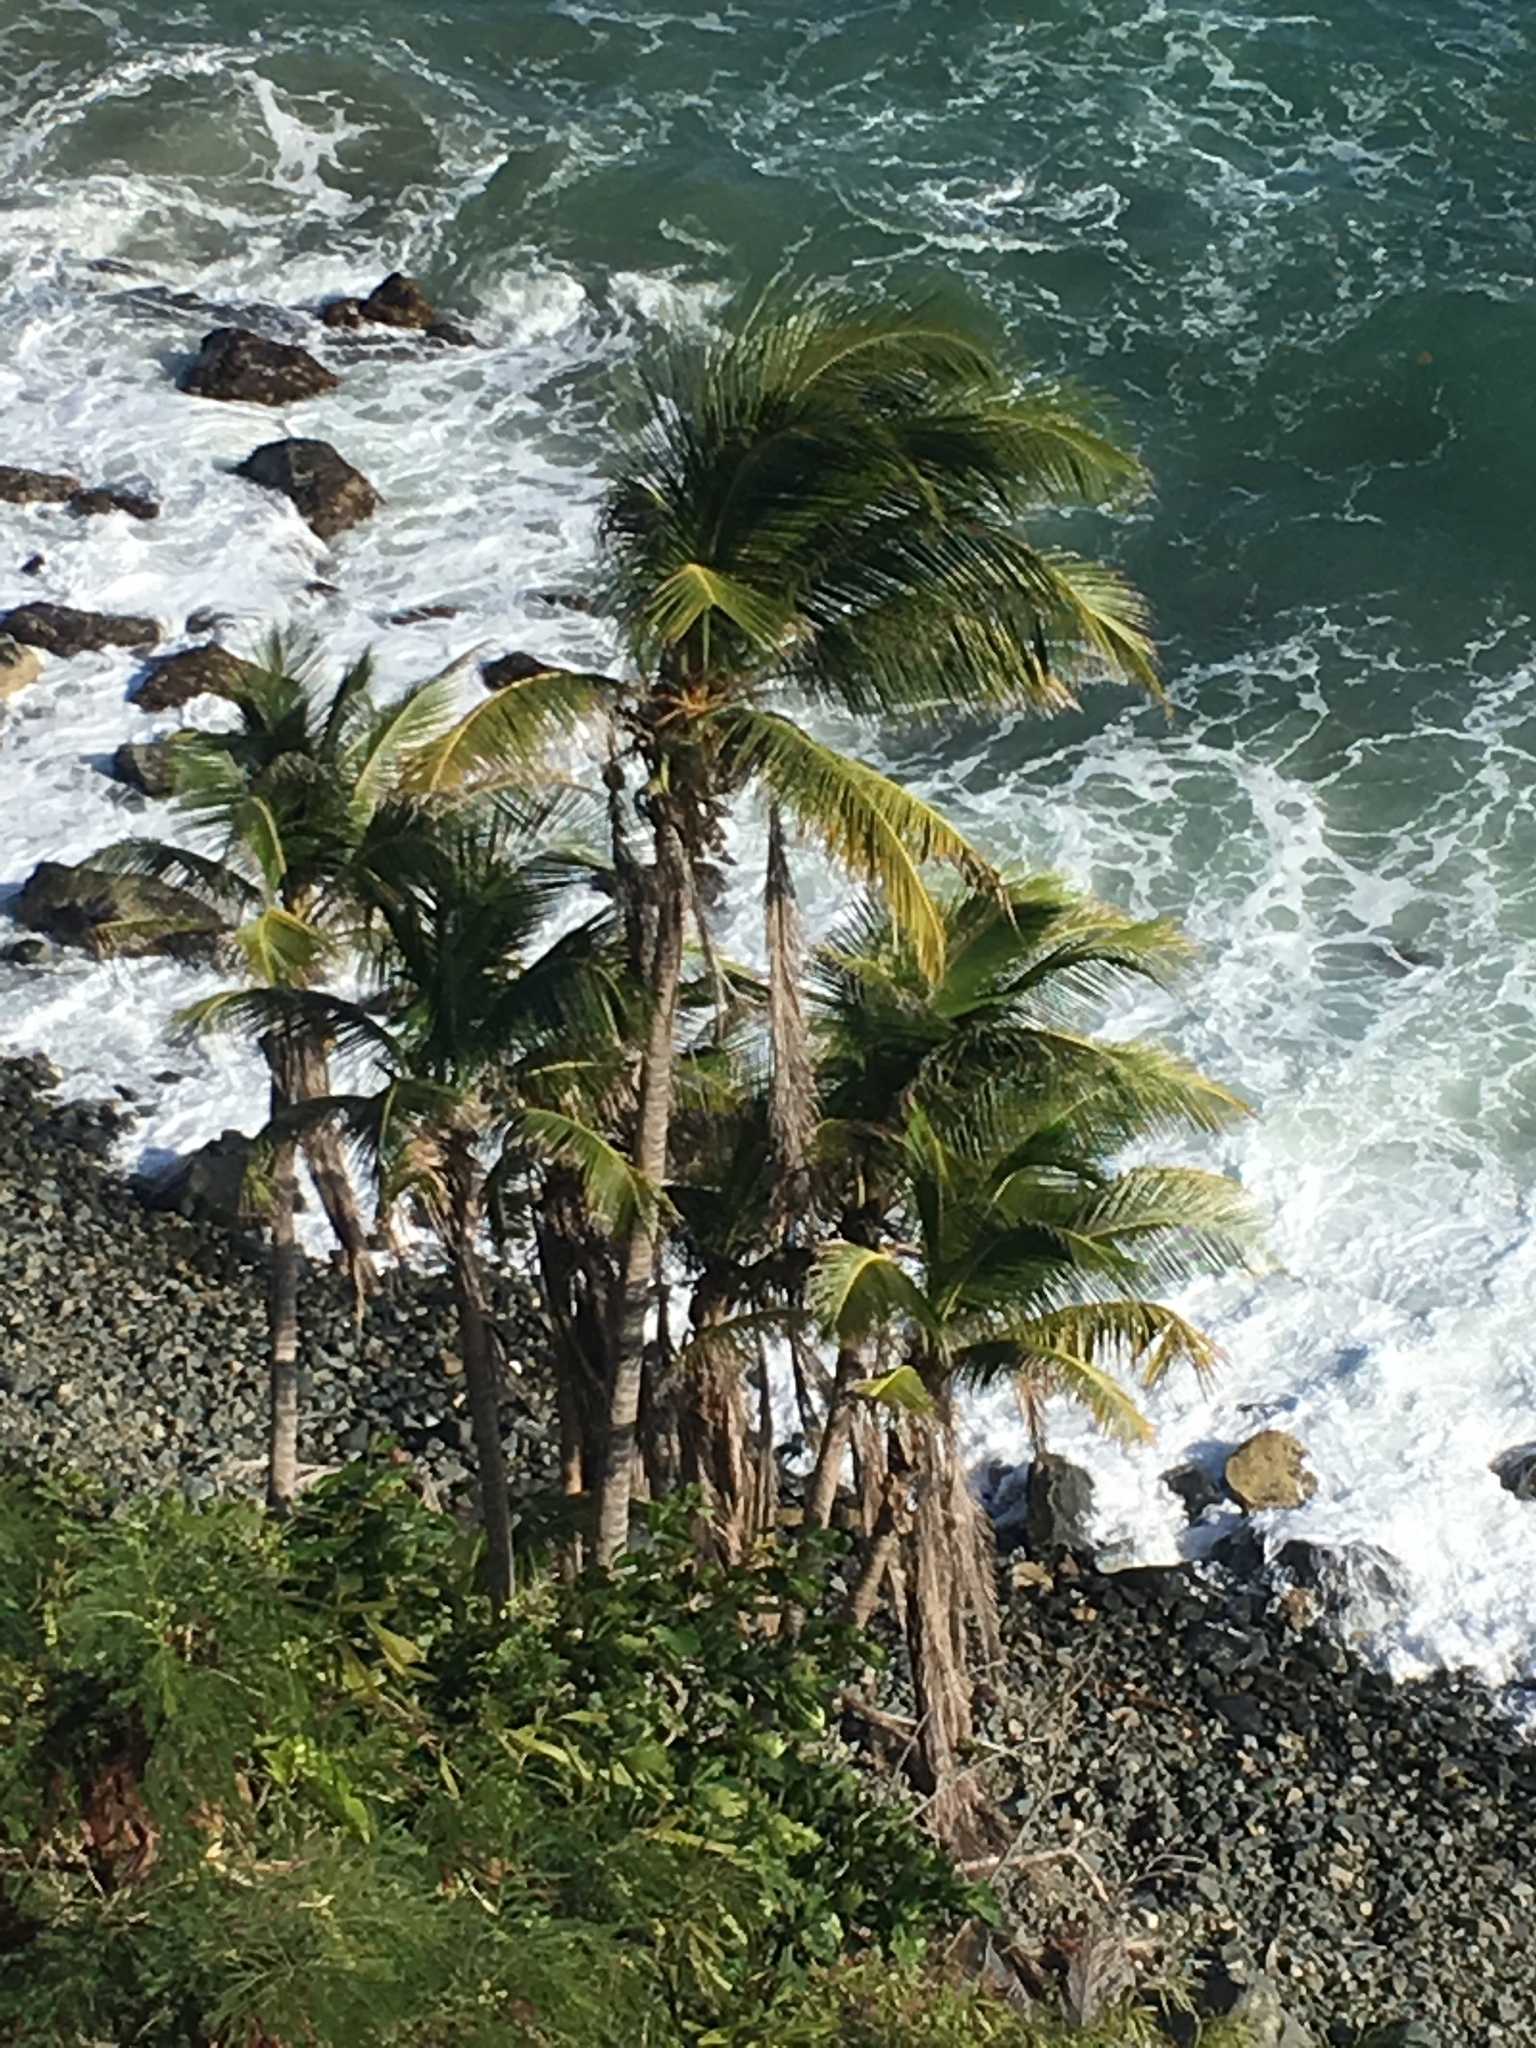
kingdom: Plantae
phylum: Tracheophyta
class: Liliopsida
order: Arecales
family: Arecaceae
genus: Cocos
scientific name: Cocos nucifera
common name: Coconut palm
